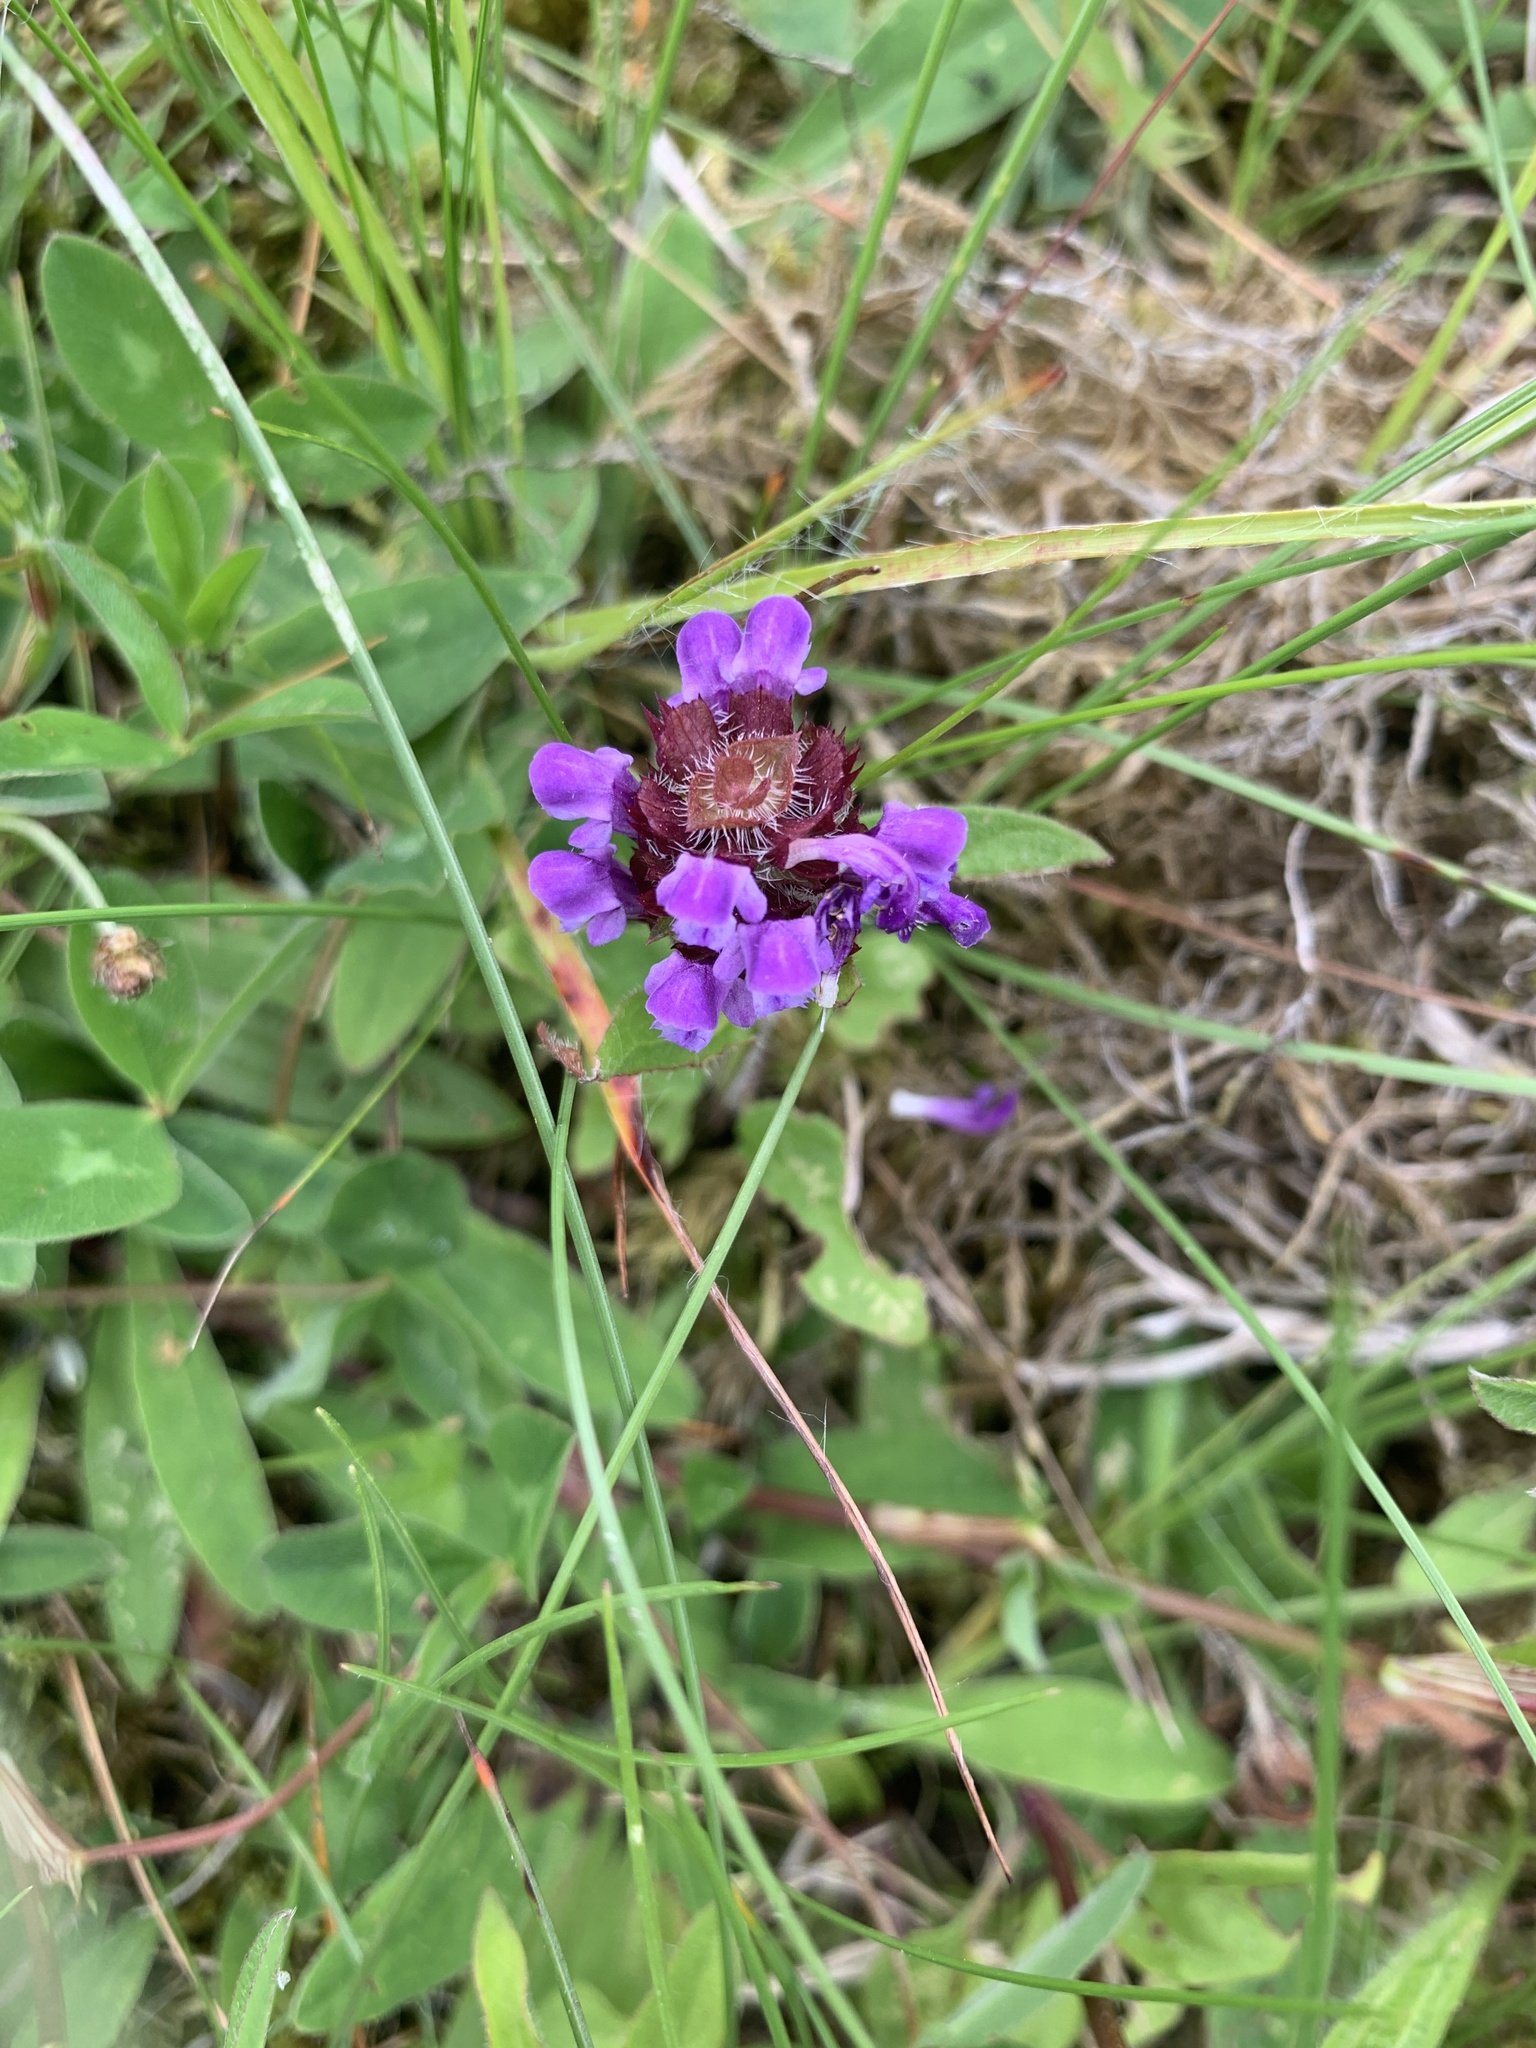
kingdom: Plantae
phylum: Tracheophyta
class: Magnoliopsida
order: Lamiales
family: Lamiaceae
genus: Prunella
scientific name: Prunella vulgaris
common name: Heal-all
